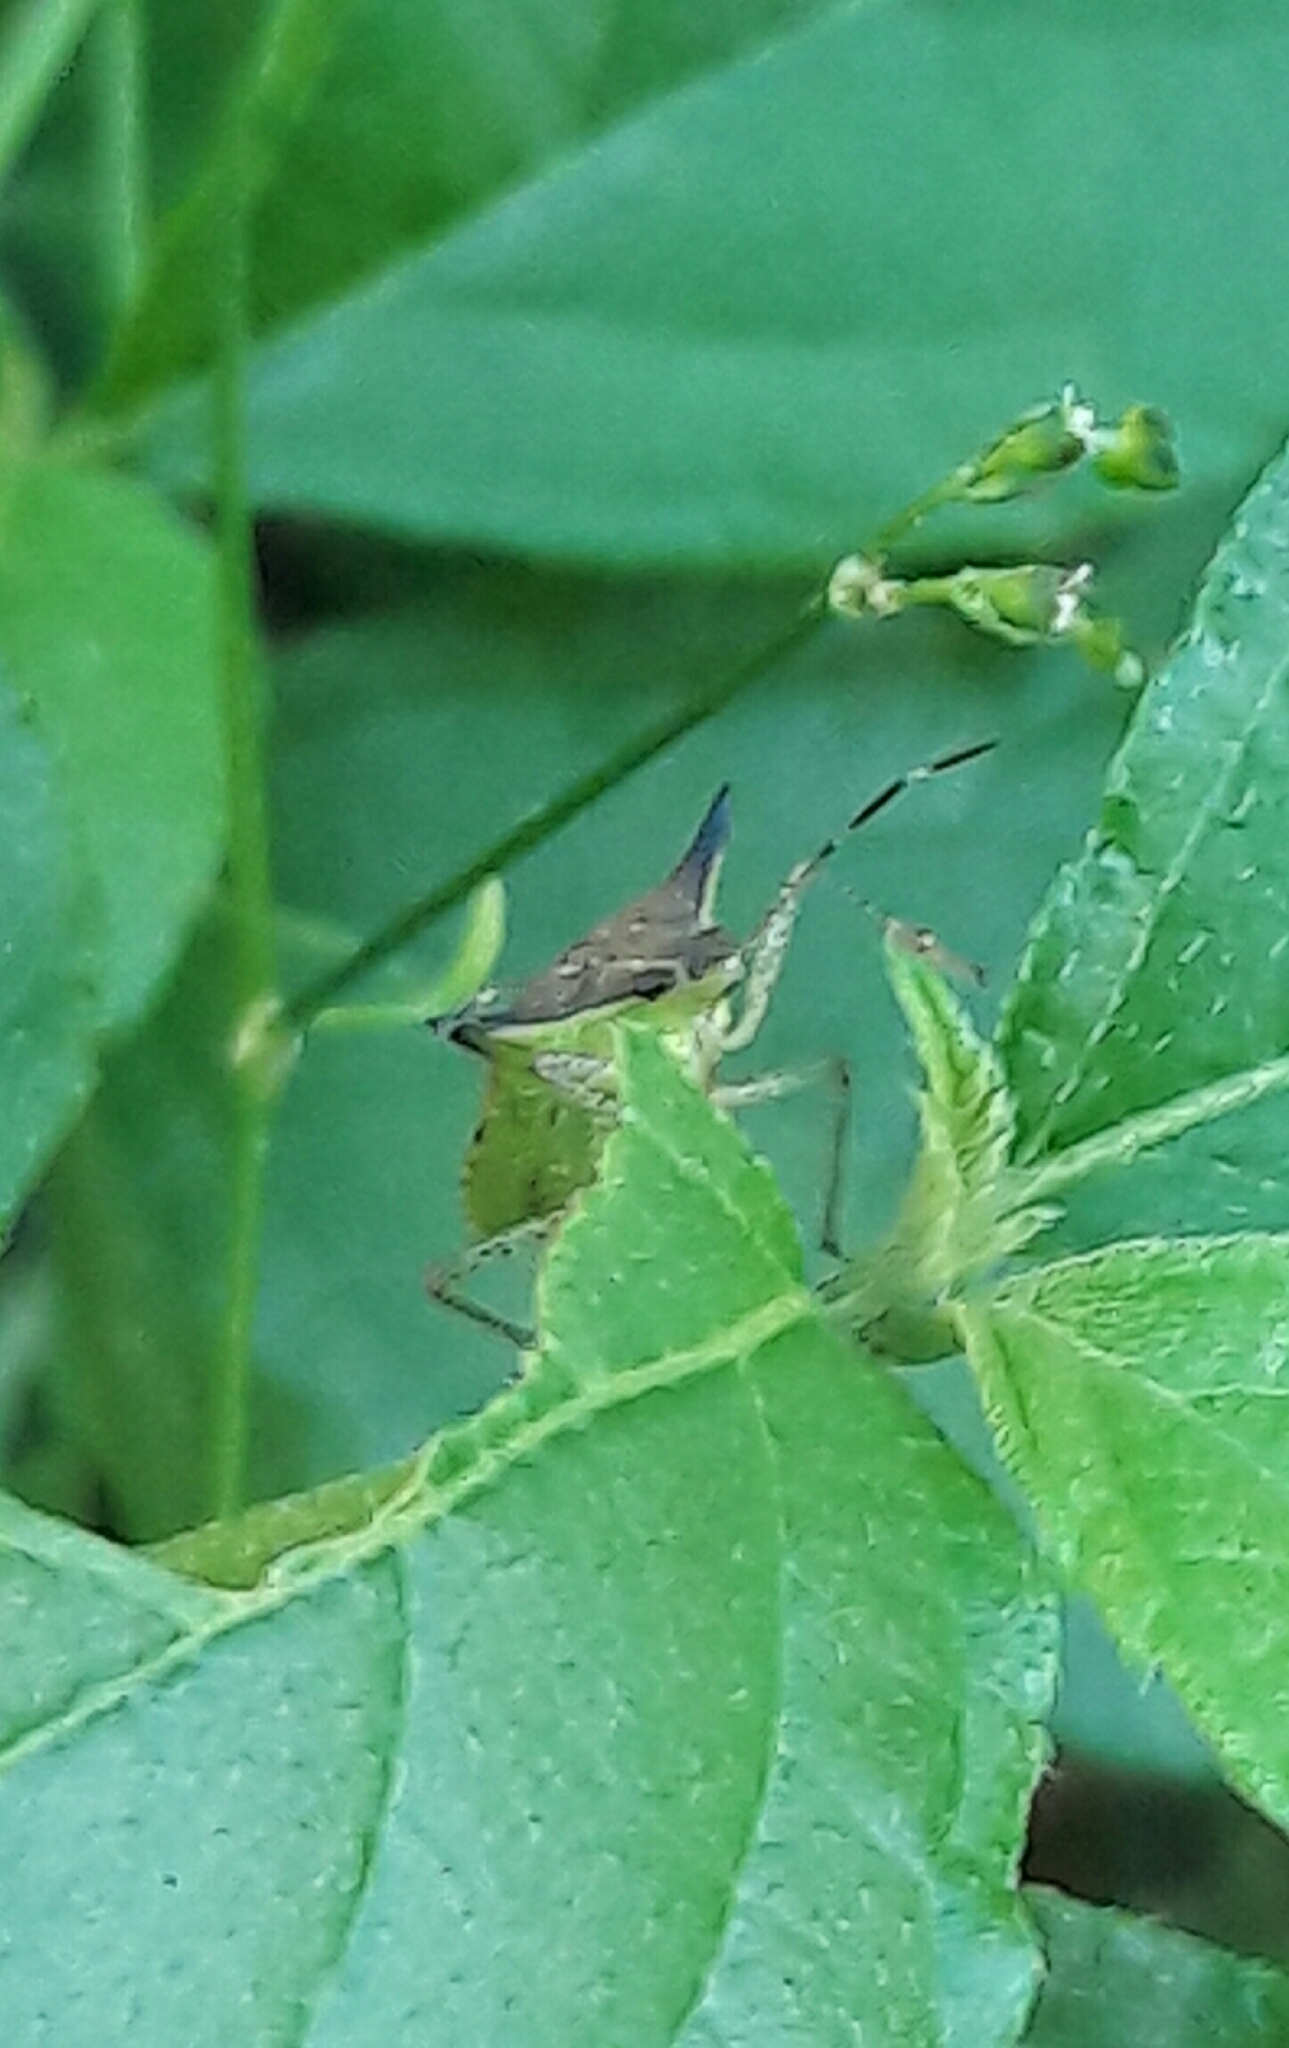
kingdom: Animalia
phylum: Arthropoda
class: Insecta
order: Hemiptera
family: Pentatomidae
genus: Euschistus
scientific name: Euschistus
